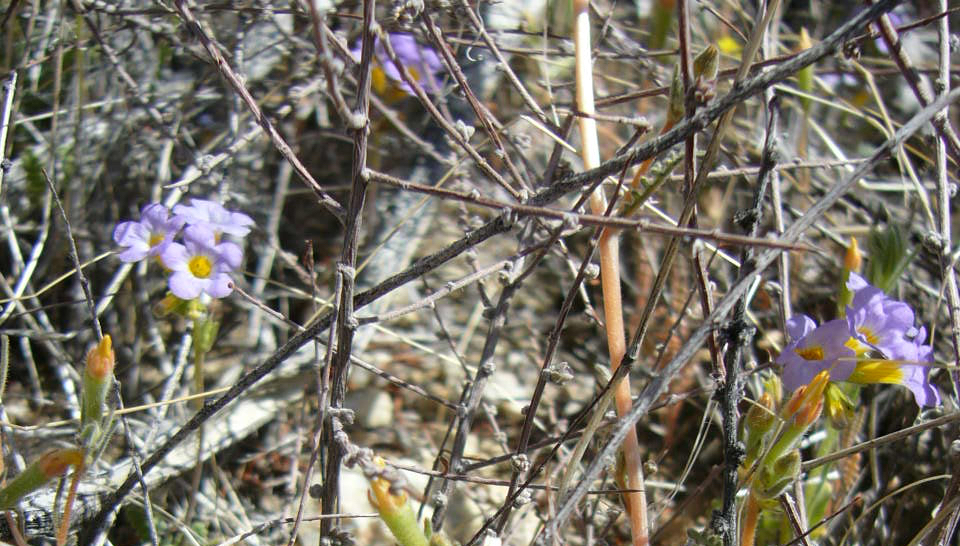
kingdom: Plantae
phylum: Tracheophyta
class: Magnoliopsida
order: Boraginales
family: Hydrophyllaceae
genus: Phacelia
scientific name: Phacelia fremontii
